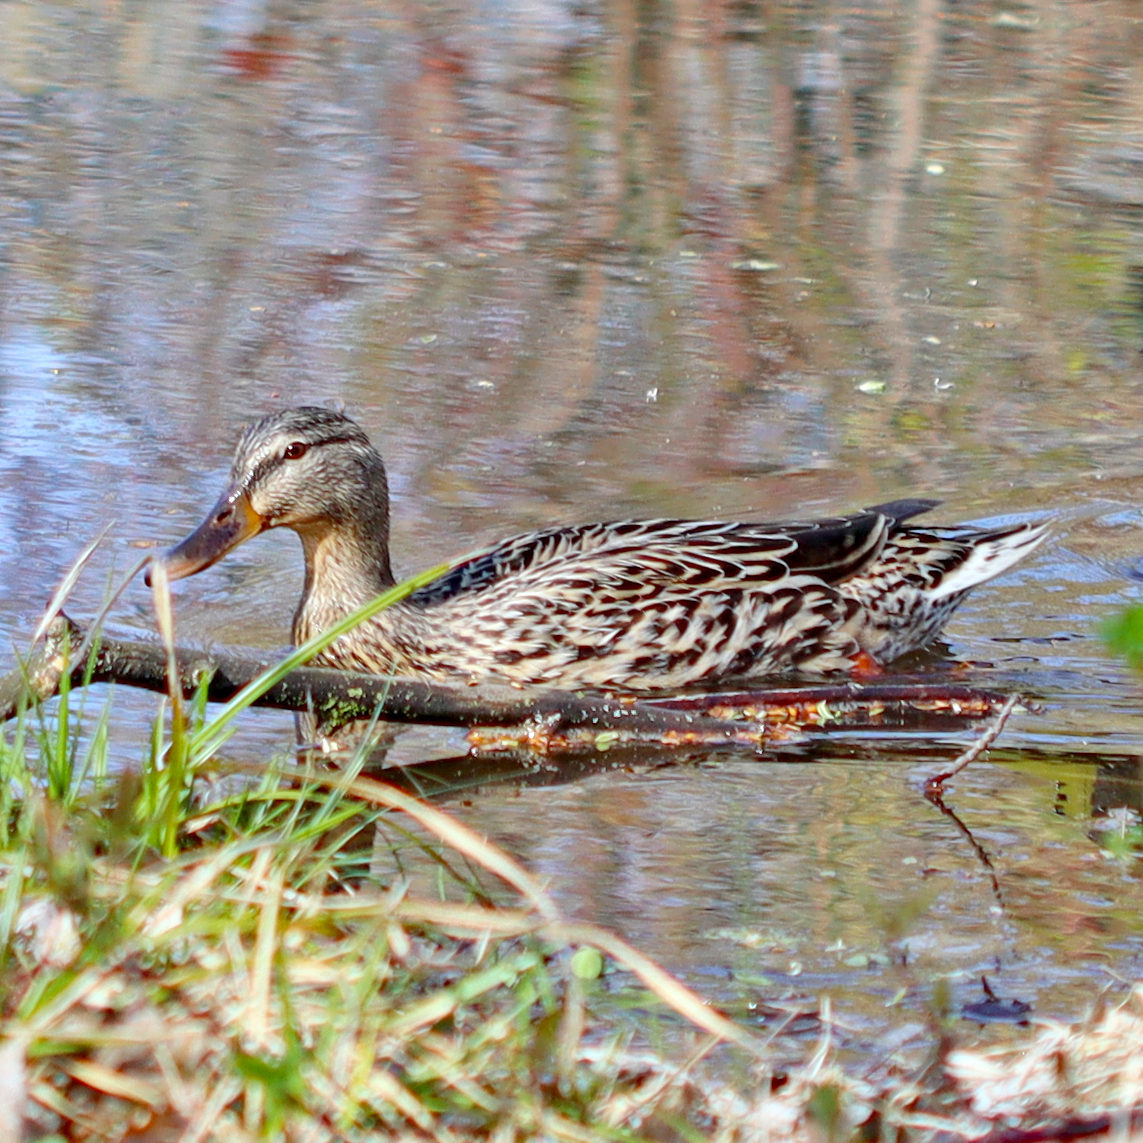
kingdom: Animalia
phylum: Chordata
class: Aves
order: Anseriformes
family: Anatidae
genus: Anas
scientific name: Anas platyrhynchos
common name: Mallard
